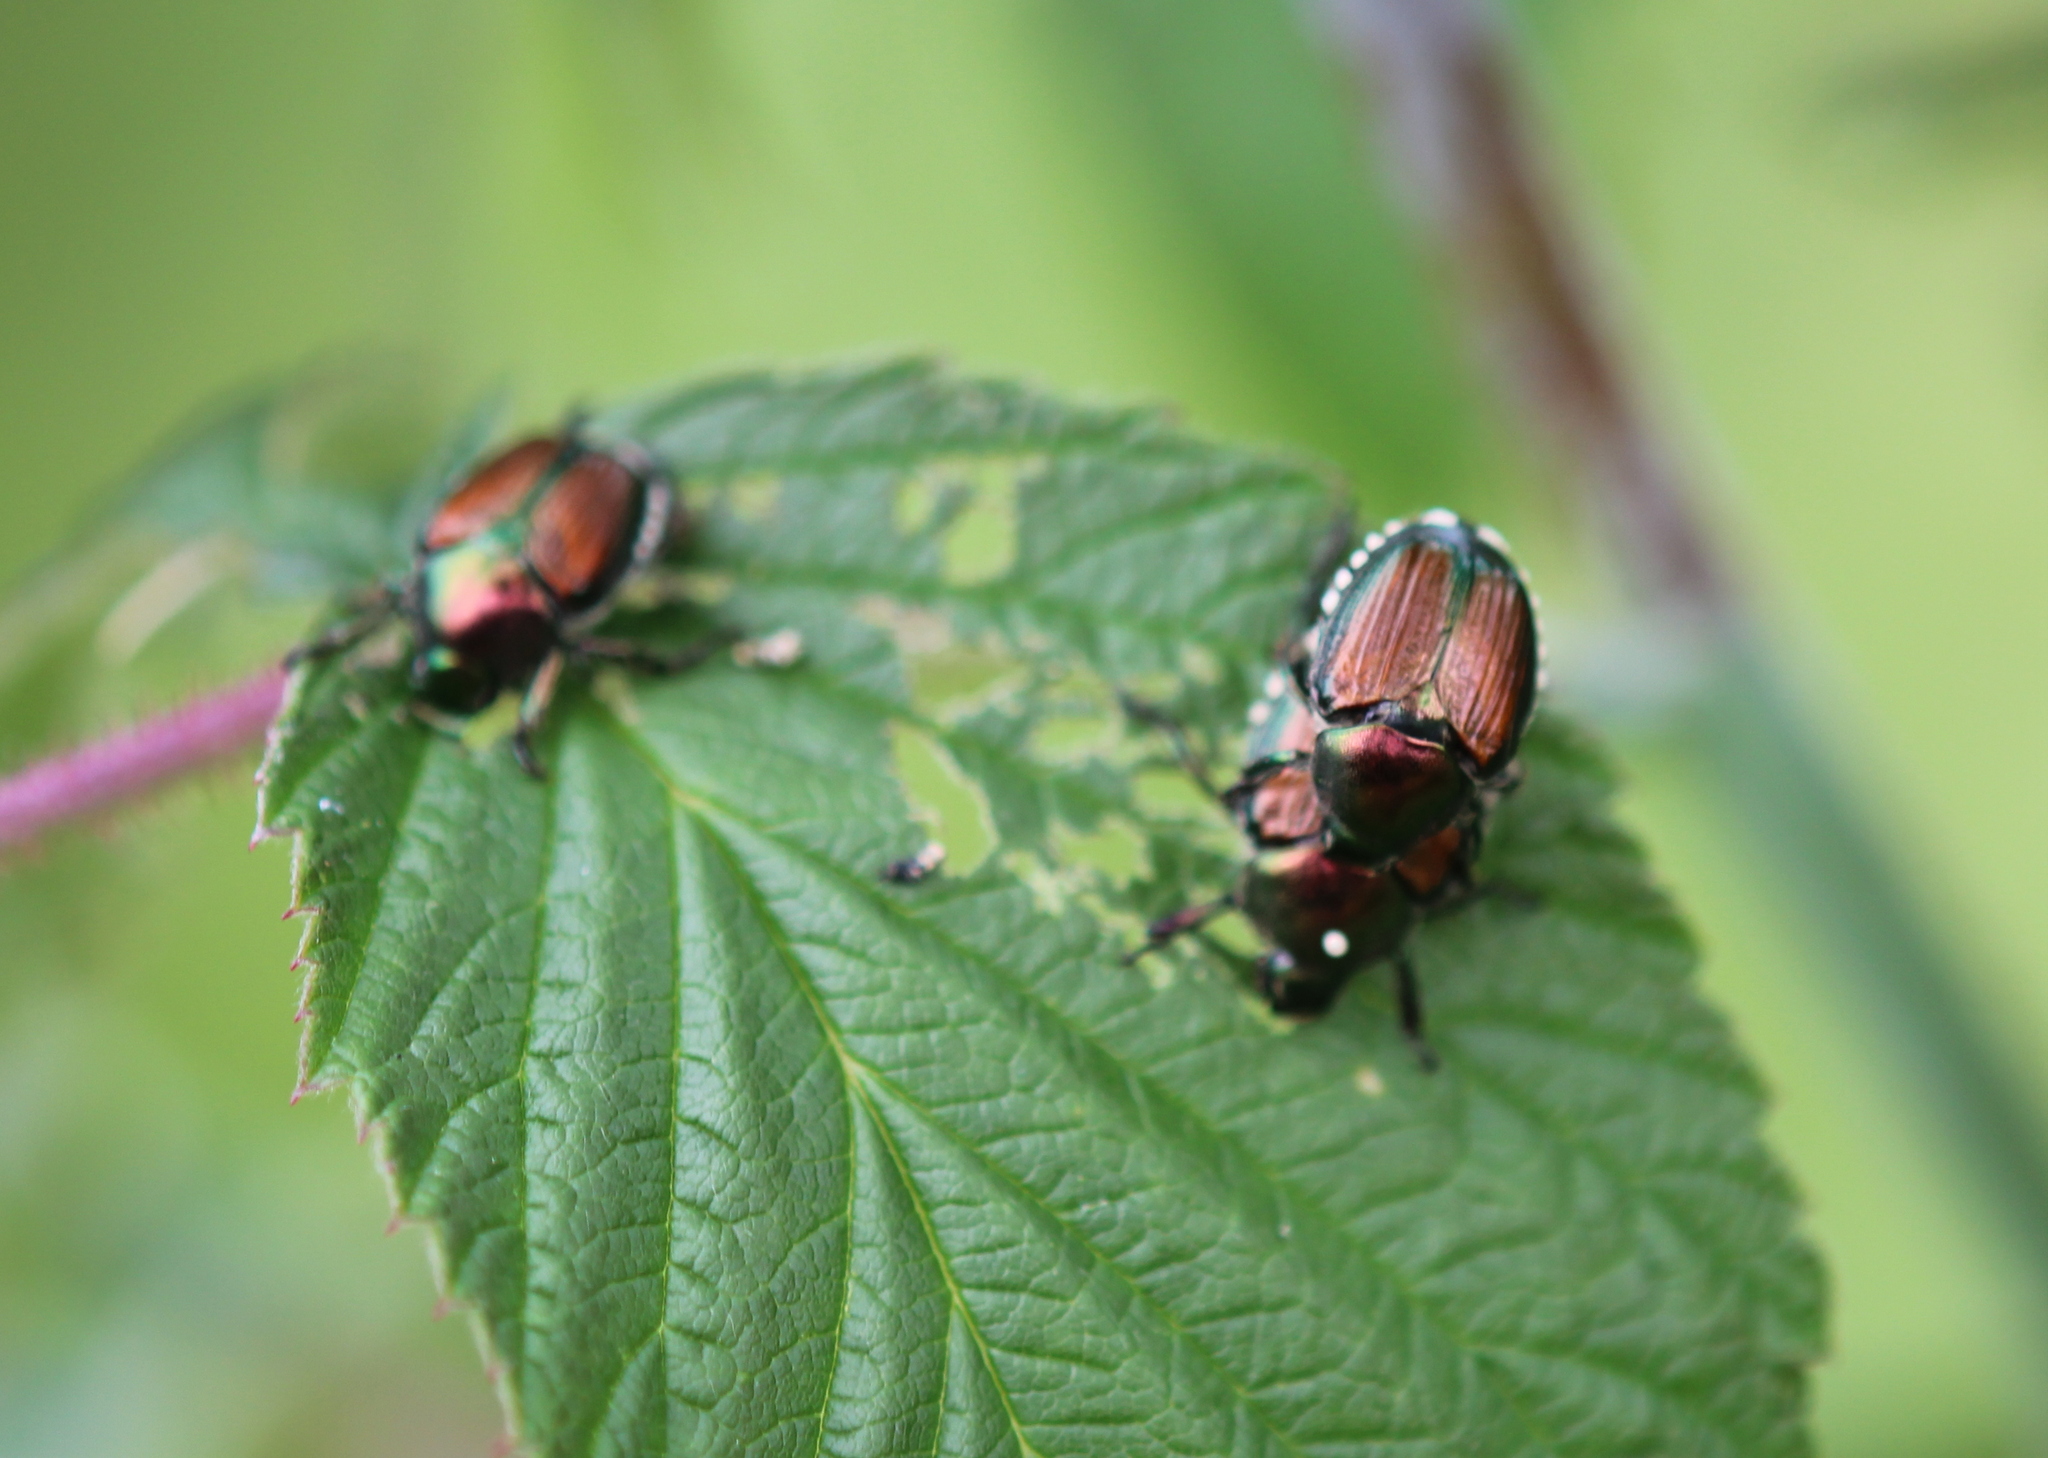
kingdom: Animalia
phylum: Arthropoda
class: Insecta
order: Diptera
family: Tachinidae
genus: Istocheta
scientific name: Istocheta aldrichi
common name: Parasitic wasp
